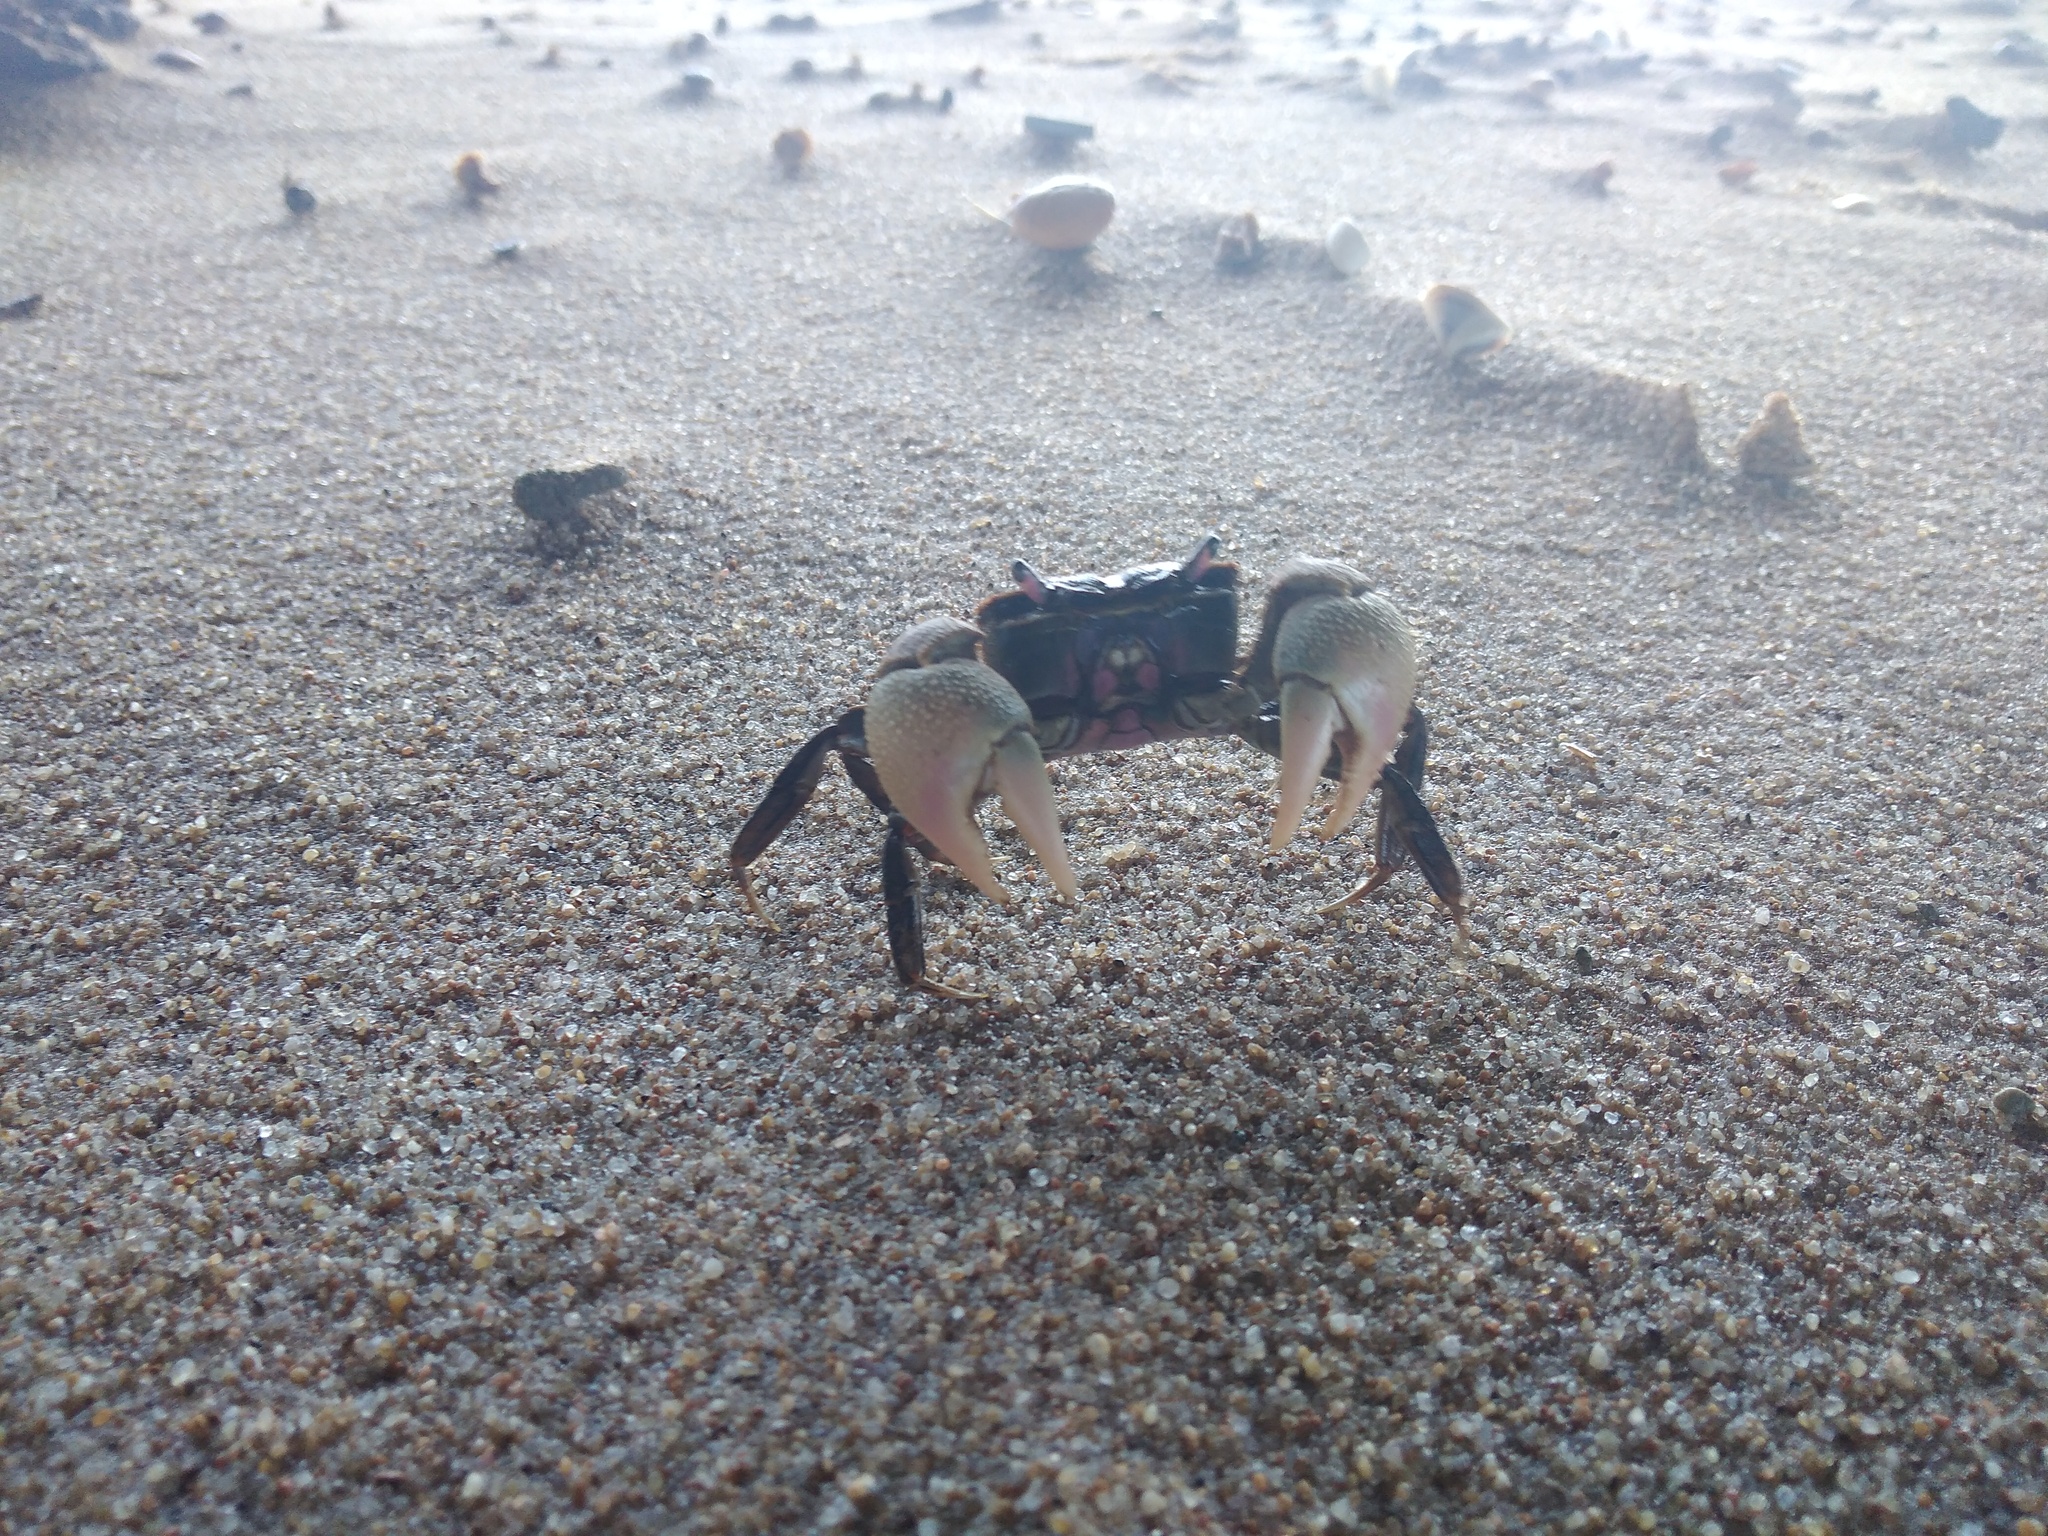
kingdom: Animalia
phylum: Arthropoda
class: Malacostraca
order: Decapoda
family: Varunidae
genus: Neohelice
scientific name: Neohelice granulata
